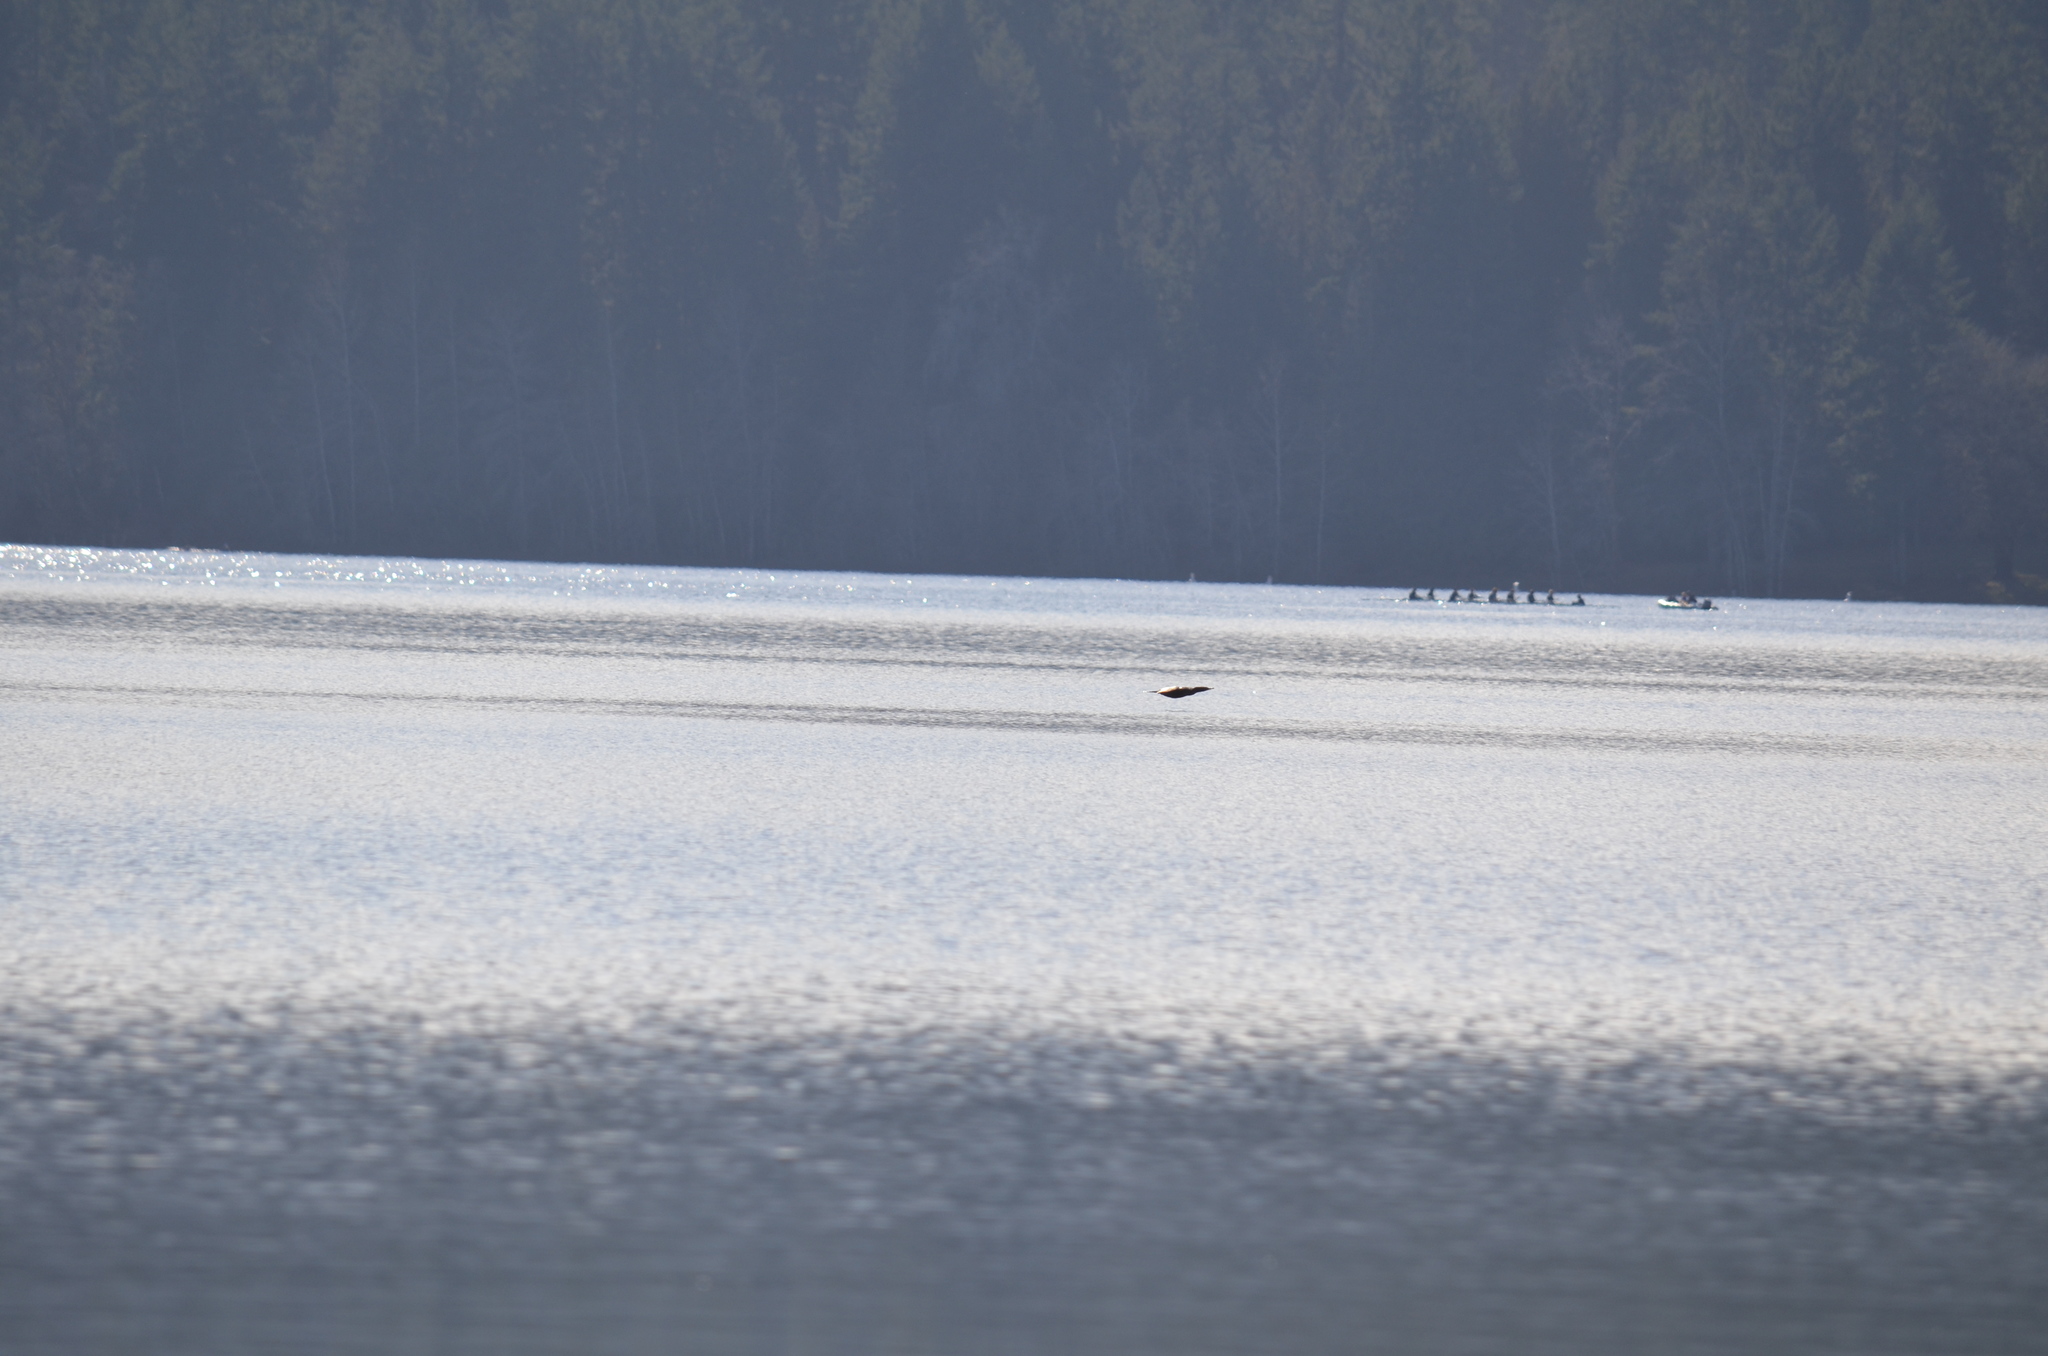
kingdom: Animalia
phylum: Chordata
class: Aves
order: Anseriformes
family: Anatidae
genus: Mergus
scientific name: Mergus merganser
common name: Common merganser
